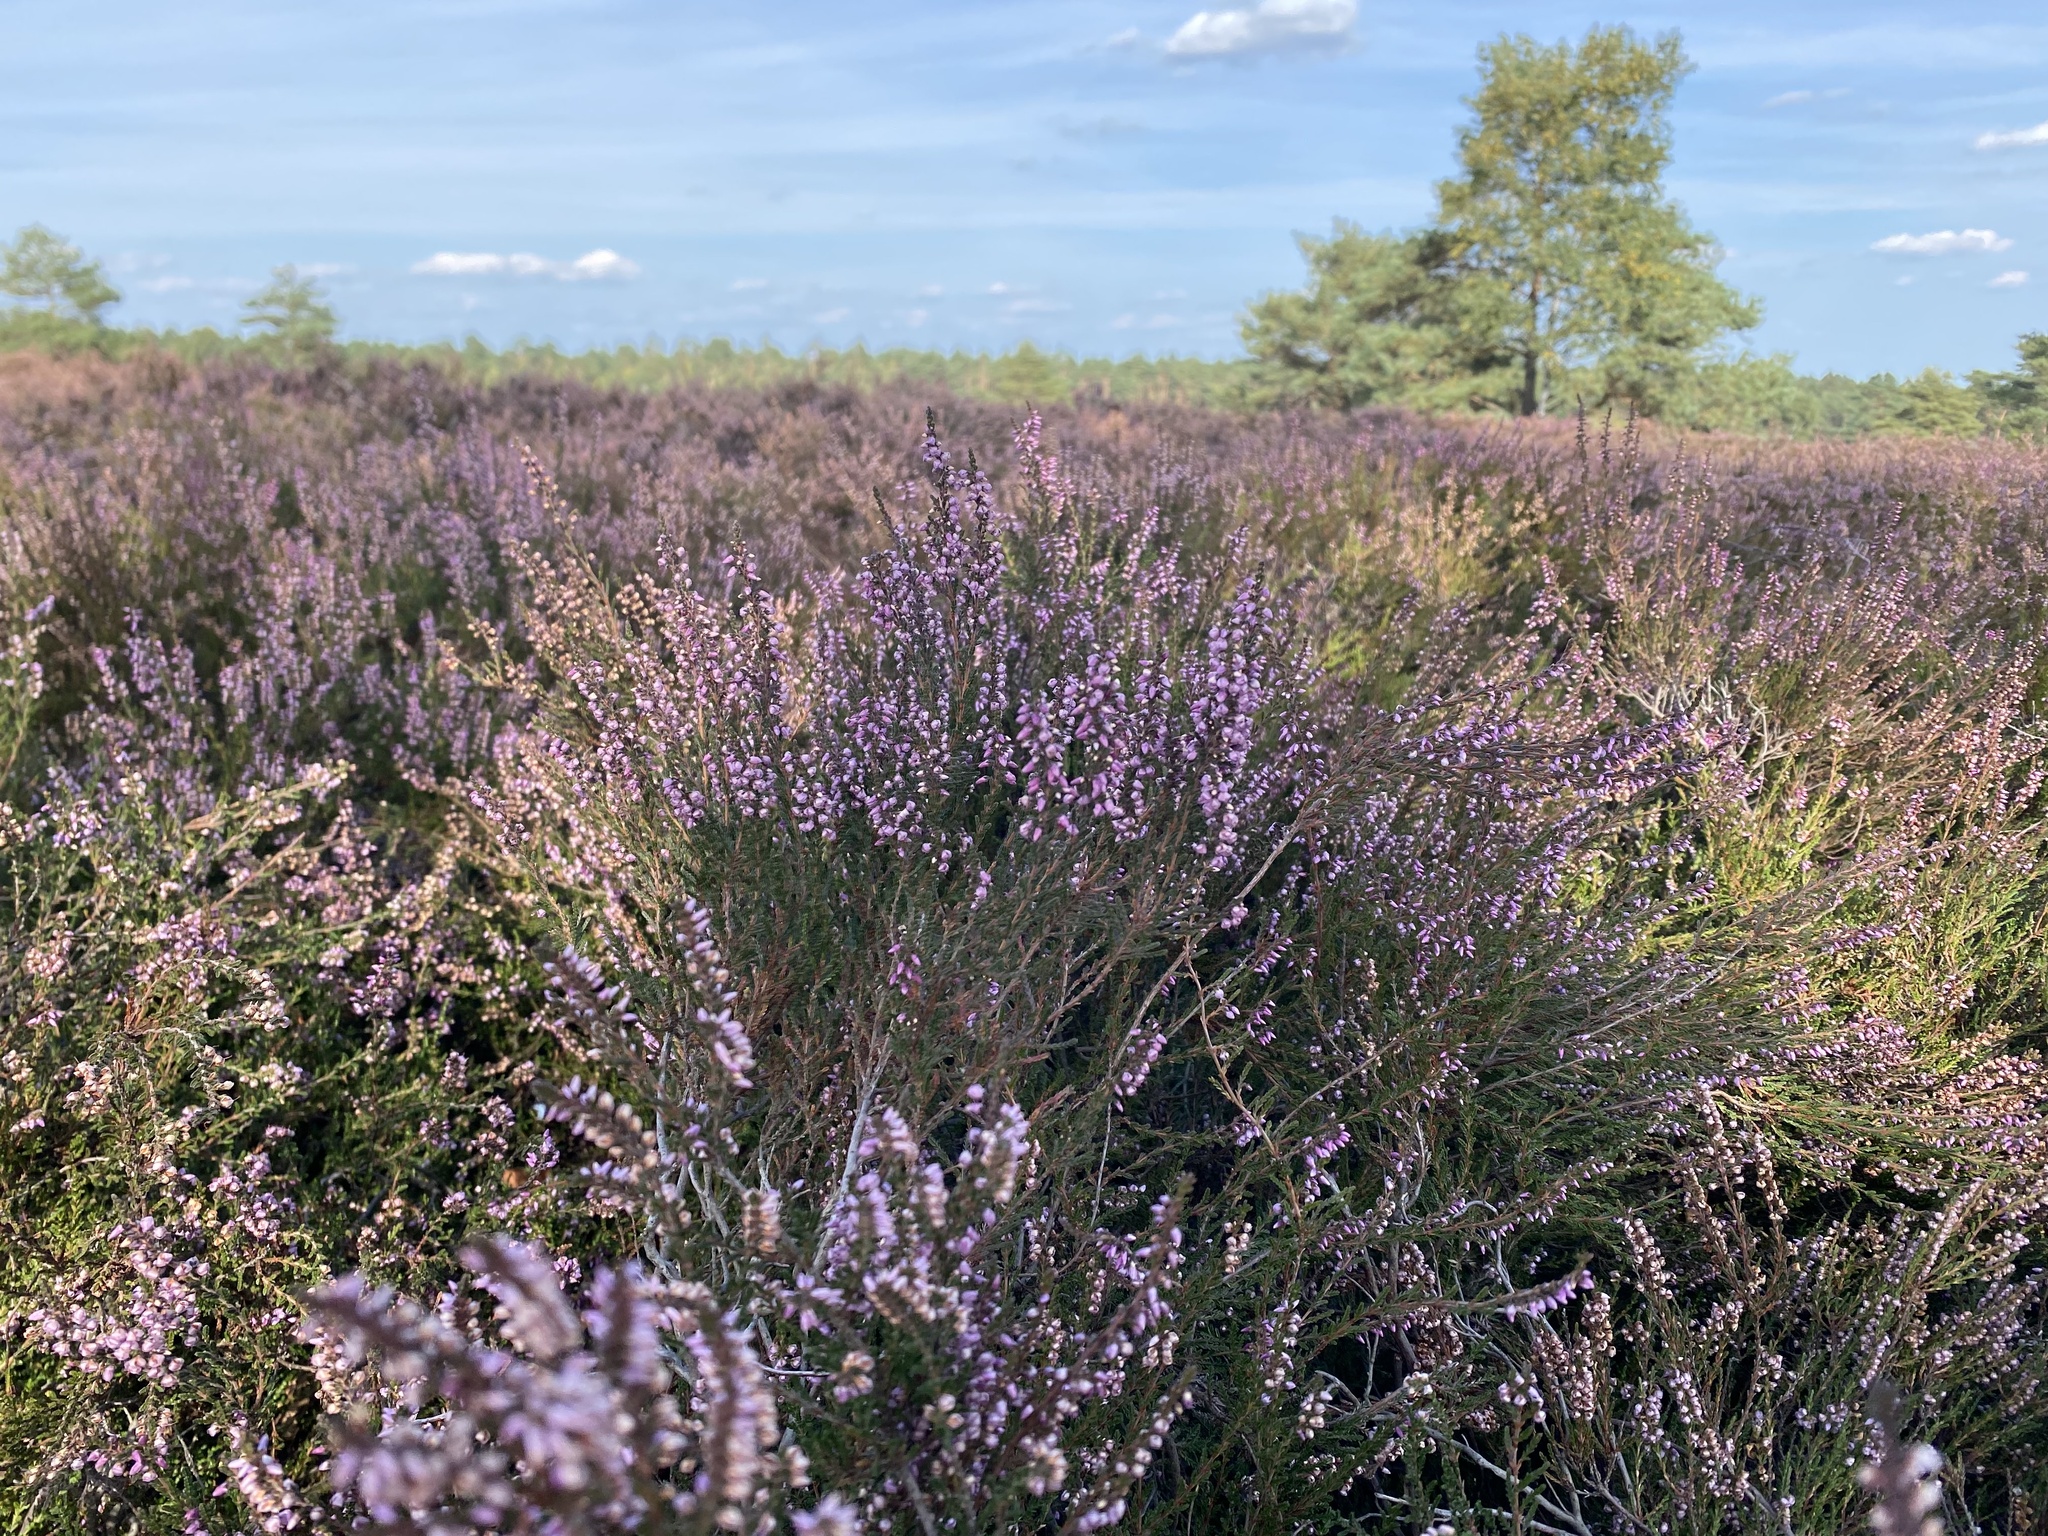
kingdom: Plantae
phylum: Tracheophyta
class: Magnoliopsida
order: Ericales
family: Ericaceae
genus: Calluna
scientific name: Calluna vulgaris
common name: Heather
